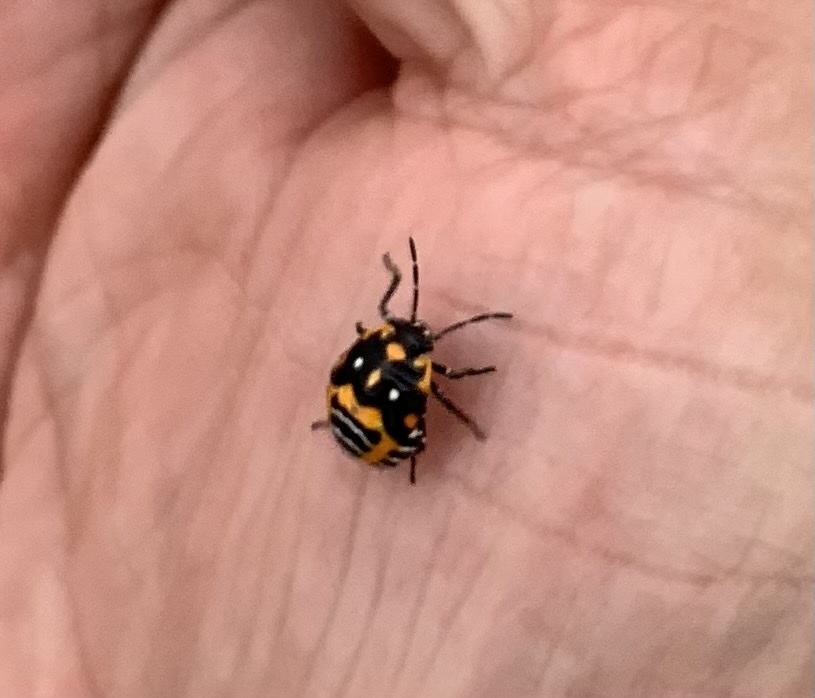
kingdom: Animalia
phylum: Arthropoda
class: Insecta
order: Hemiptera
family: Pentatomidae
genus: Murgantia
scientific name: Murgantia histrionica
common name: Harlequin bug
